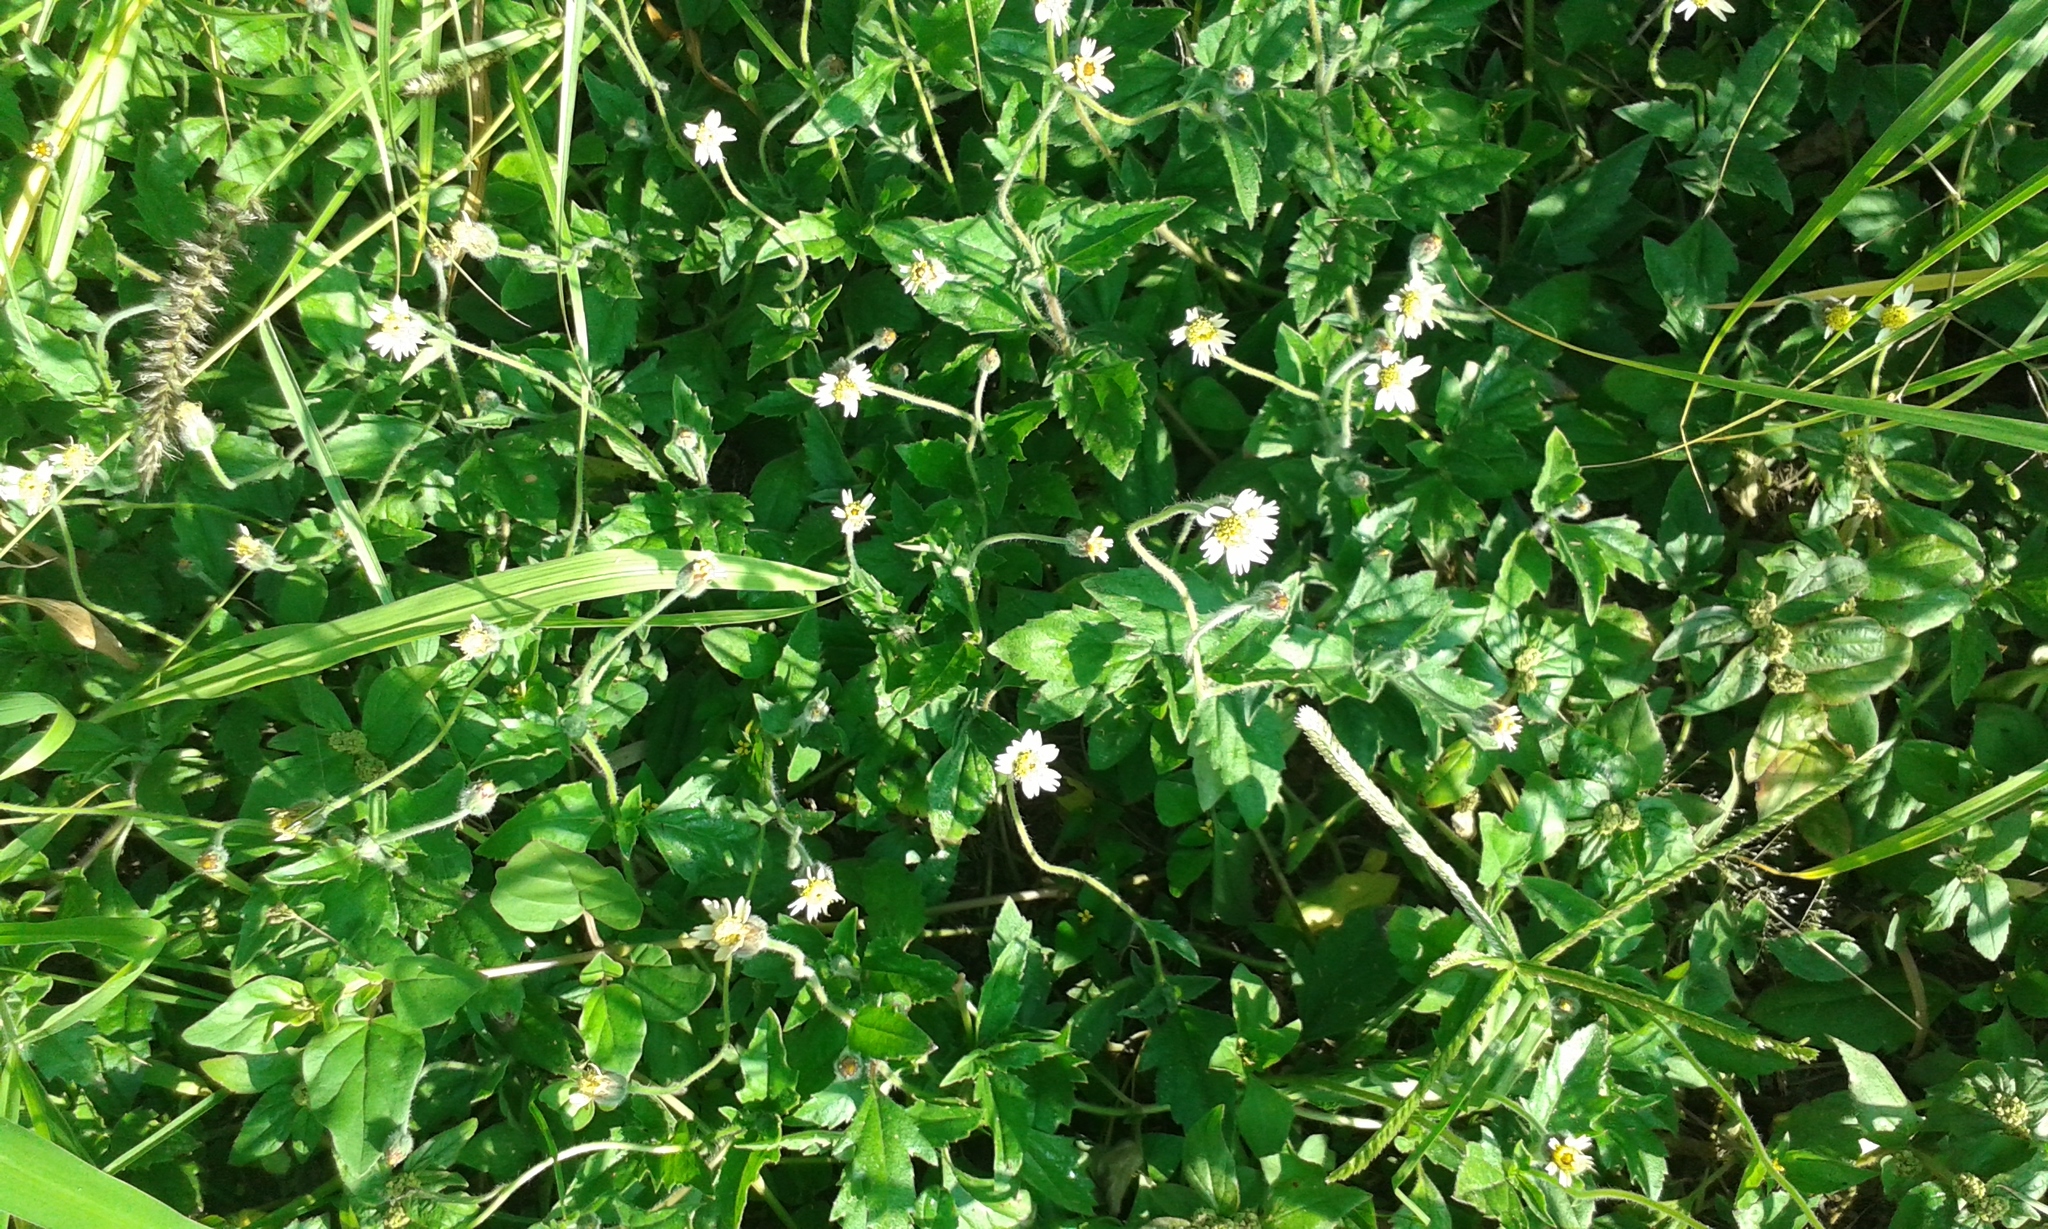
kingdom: Plantae
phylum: Tracheophyta
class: Magnoliopsida
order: Asterales
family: Asteraceae
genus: Tridax
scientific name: Tridax procumbens
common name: Coatbuttons
